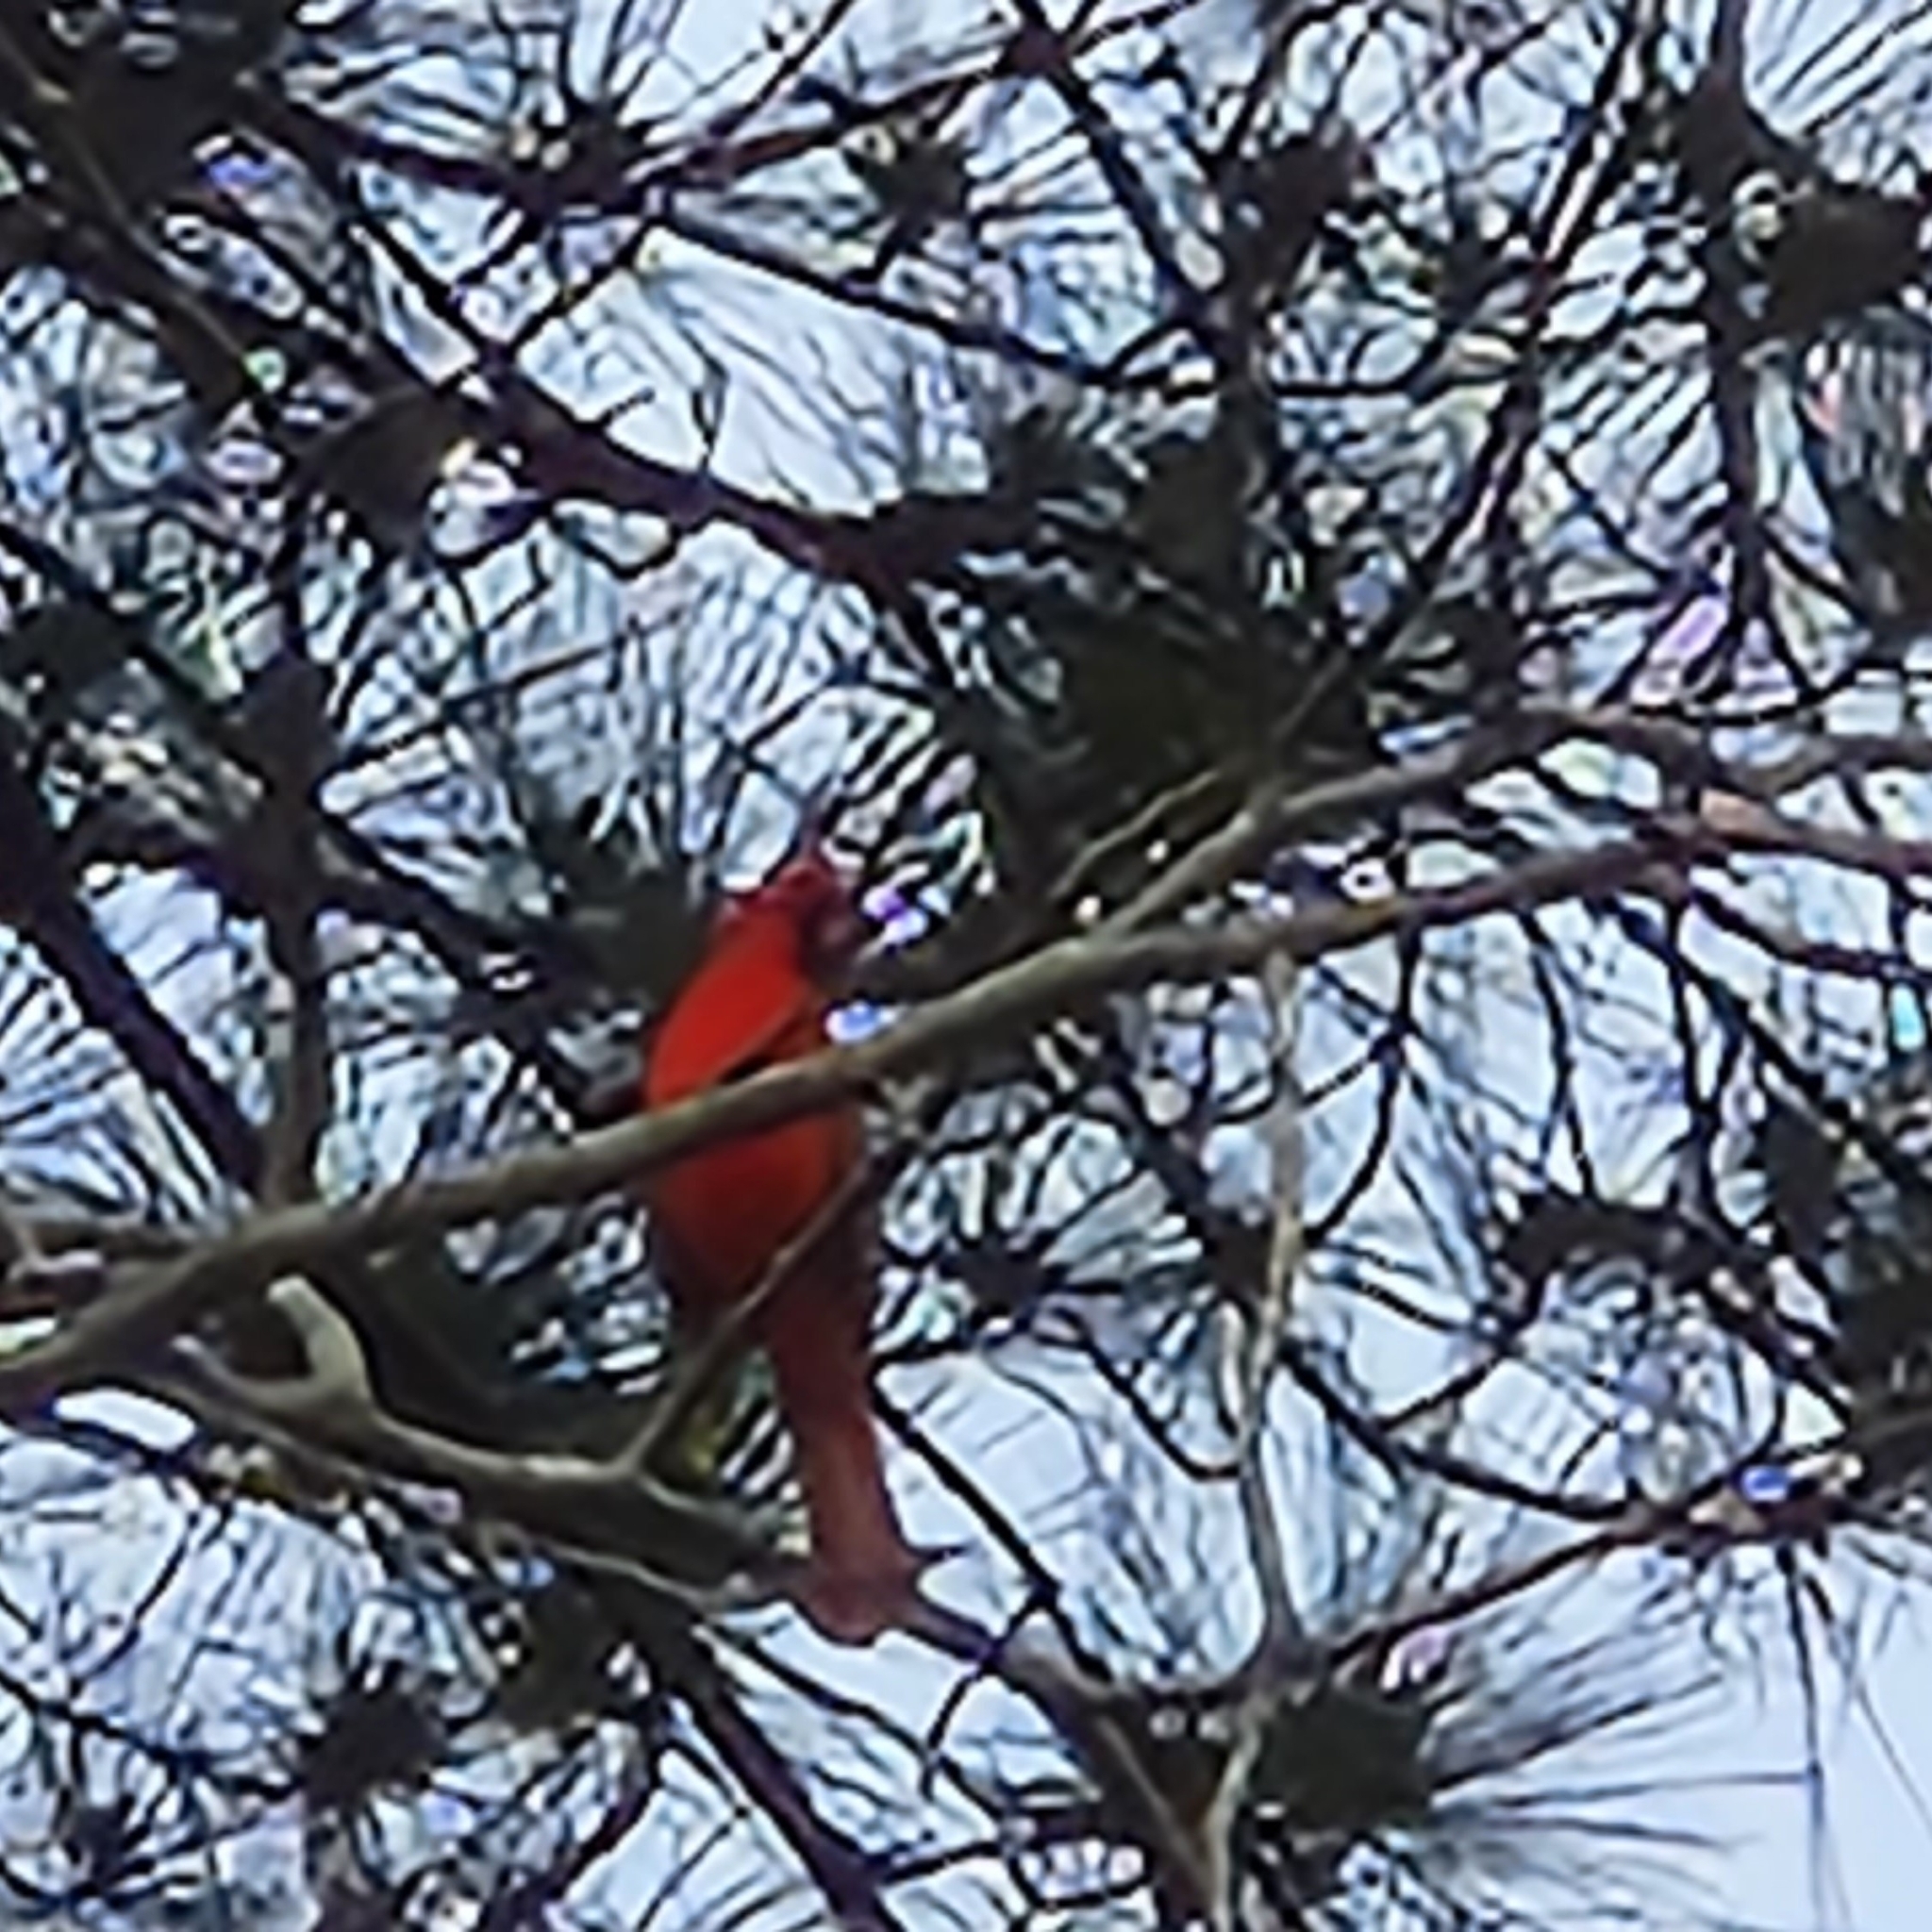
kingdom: Animalia
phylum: Chordata
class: Aves
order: Passeriformes
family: Cardinalidae
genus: Cardinalis
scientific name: Cardinalis cardinalis
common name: Northern cardinal
